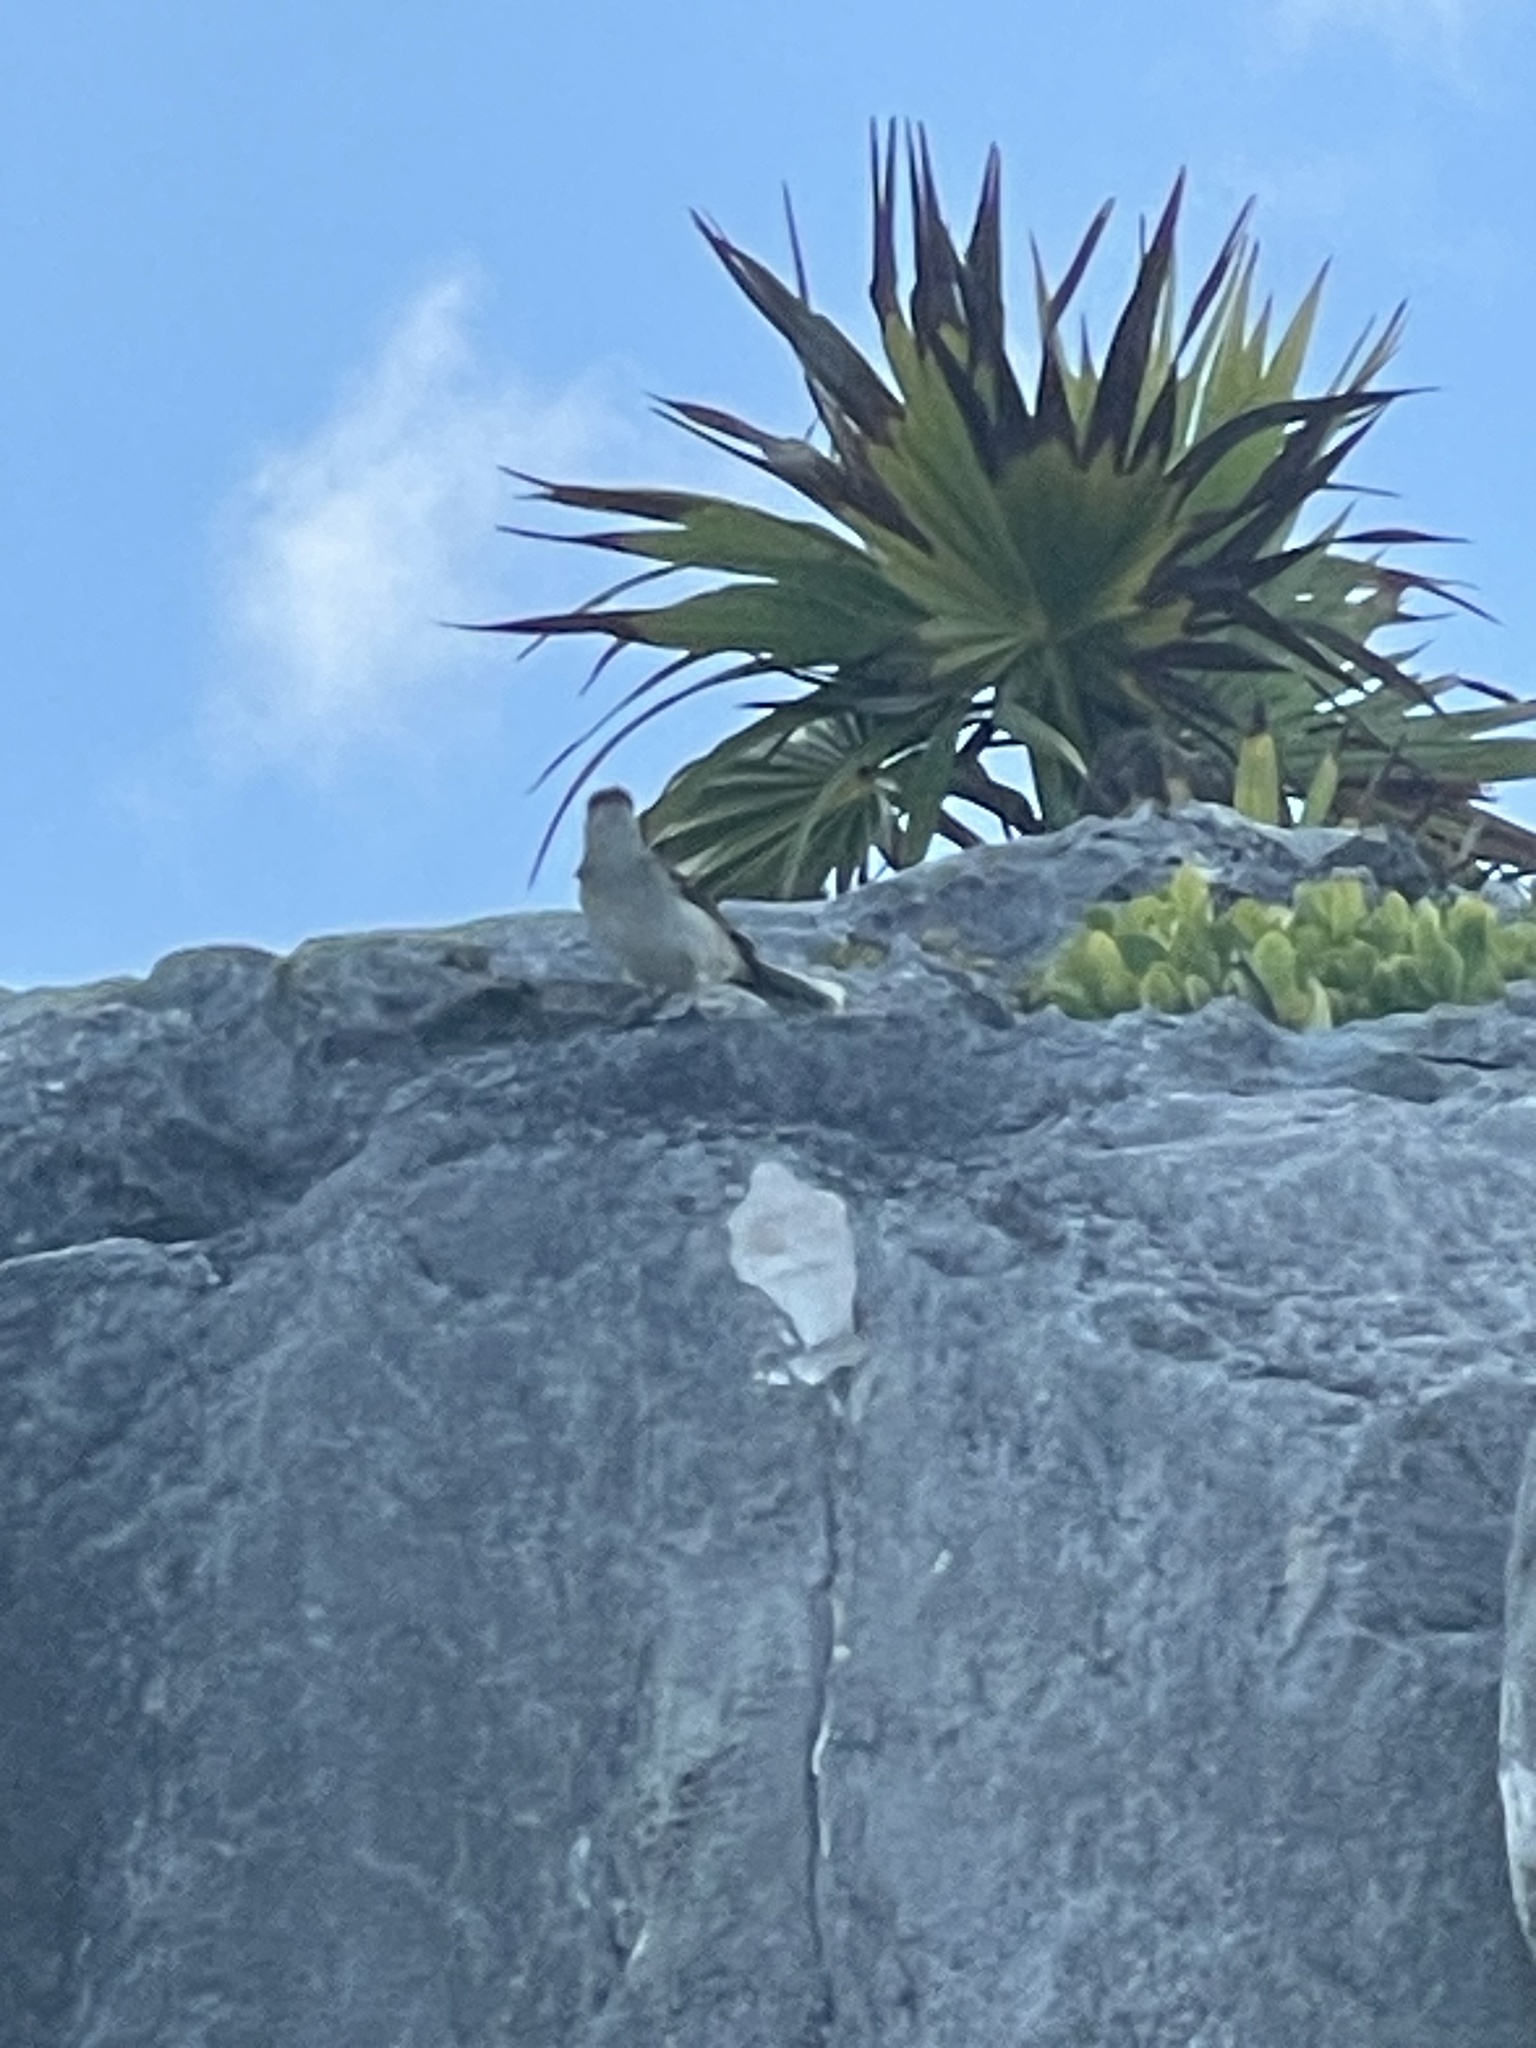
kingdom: Animalia
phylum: Chordata
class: Aves
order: Passeriformes
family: Mimidae
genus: Mimus
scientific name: Mimus gilvus
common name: Tropical mockingbird
